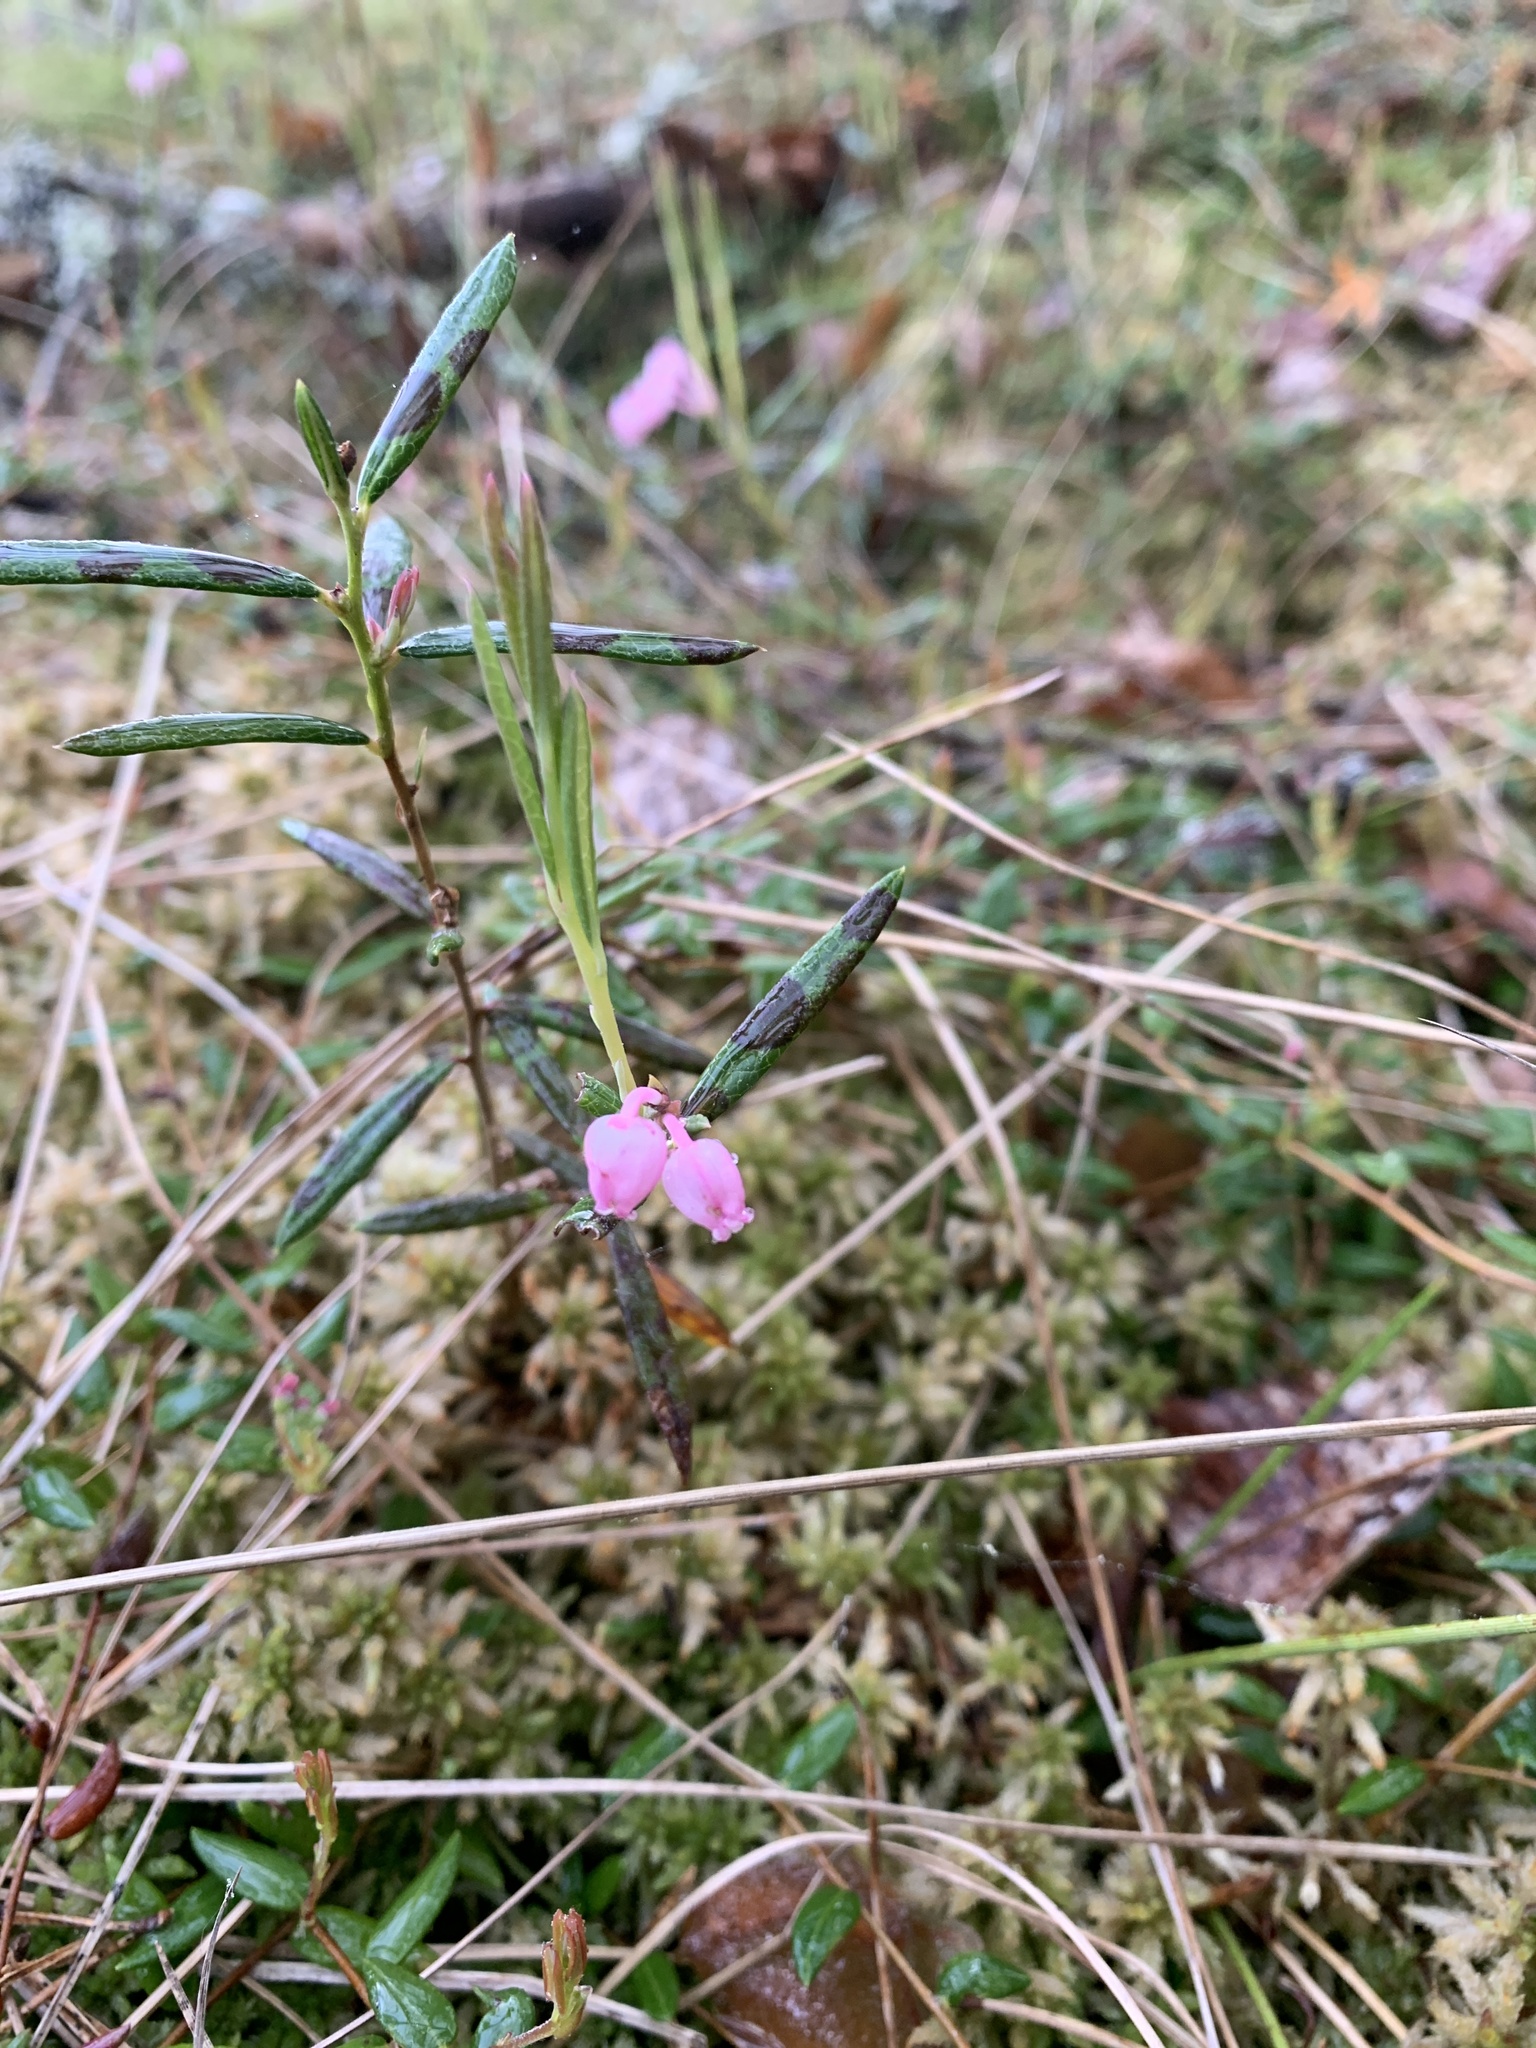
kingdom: Plantae
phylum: Tracheophyta
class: Magnoliopsida
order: Ericales
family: Ericaceae
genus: Andromeda
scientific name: Andromeda polifolia
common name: Bog-rosemary
